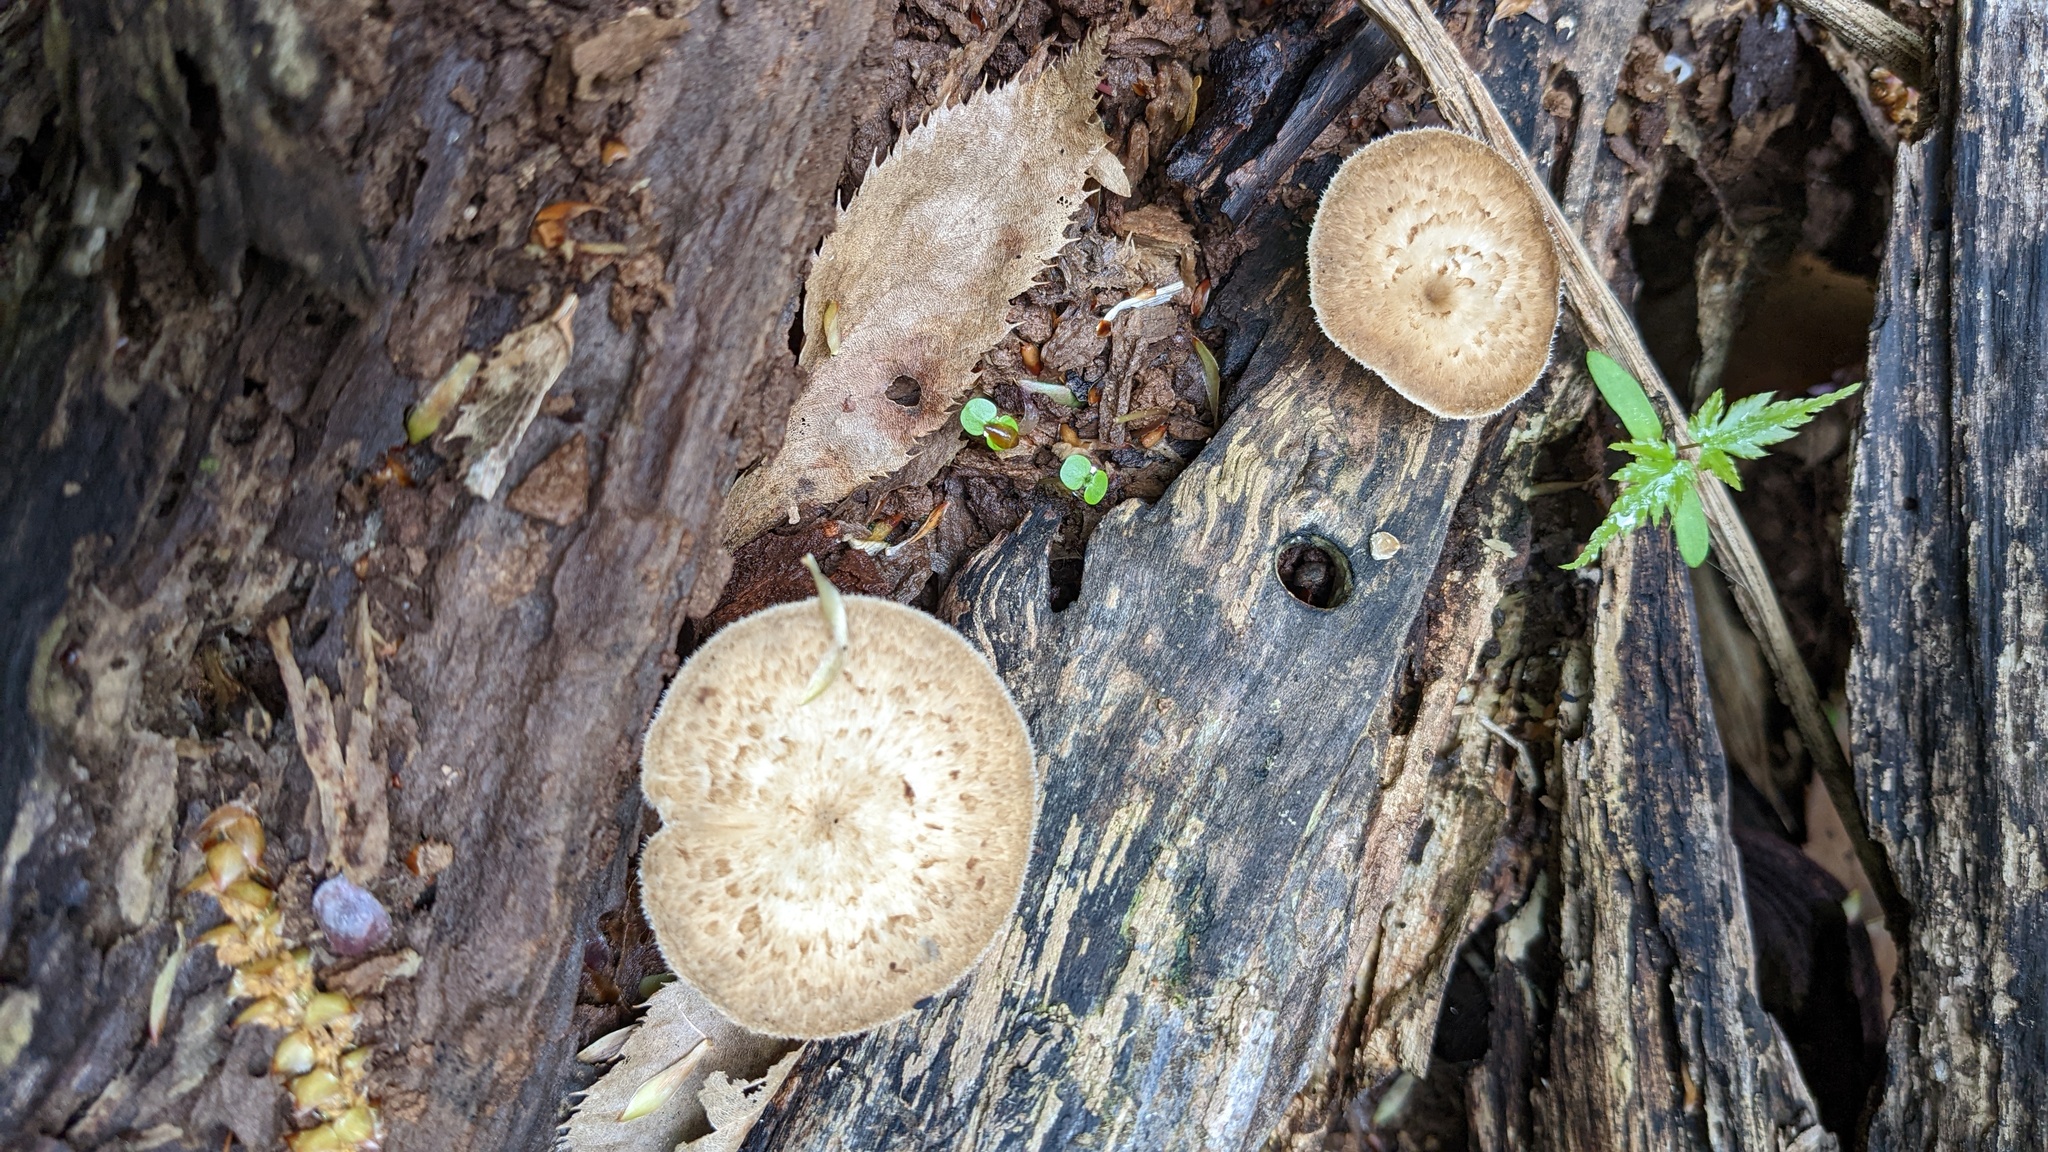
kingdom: Fungi
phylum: Basidiomycota
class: Agaricomycetes
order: Polyporales
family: Polyporaceae
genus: Lentinus
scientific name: Lentinus arcularius
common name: Spring polypore
